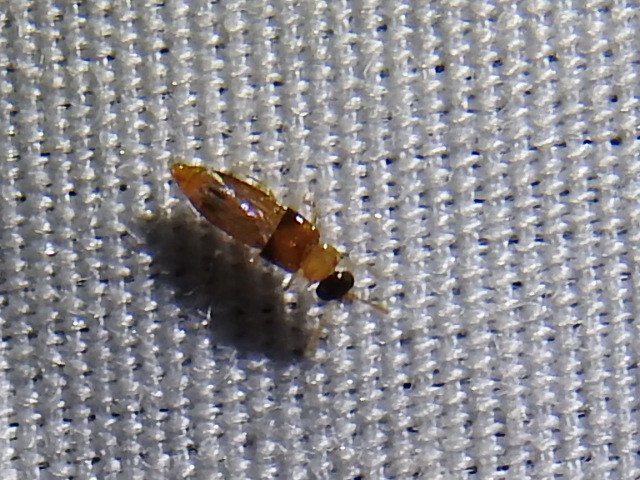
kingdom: Animalia
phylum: Arthropoda
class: Insecta
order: Coleoptera
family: Staphylinidae
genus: Phanerota
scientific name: Phanerota fasciata
